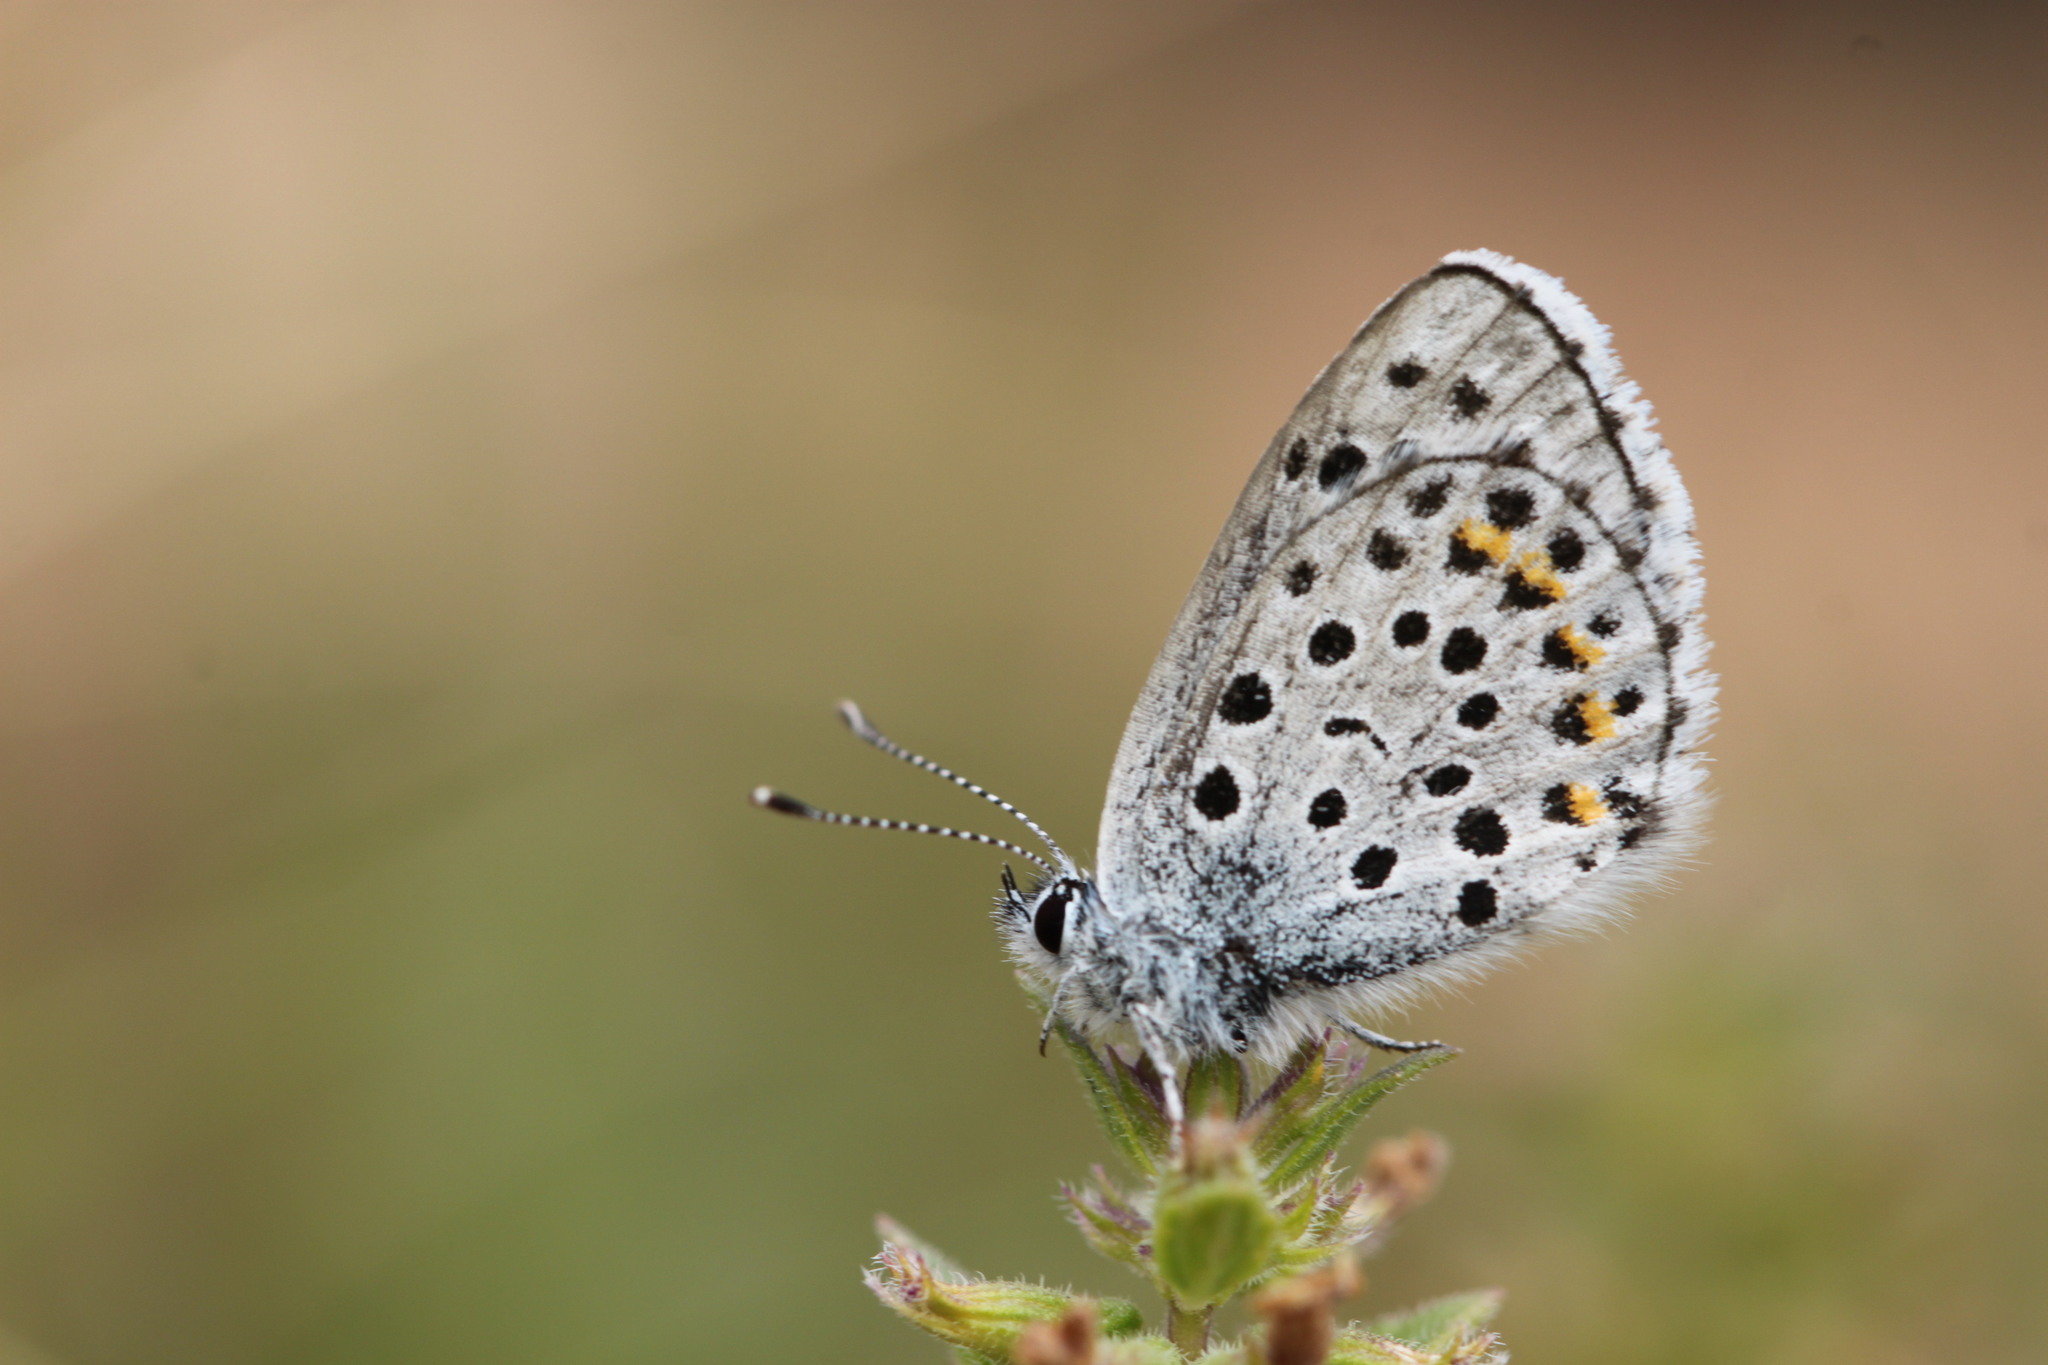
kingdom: Animalia
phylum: Arthropoda
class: Insecta
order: Lepidoptera
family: Lycaenidae
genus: Pseudophilotes
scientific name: Pseudophilotes baton
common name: Baton blue
